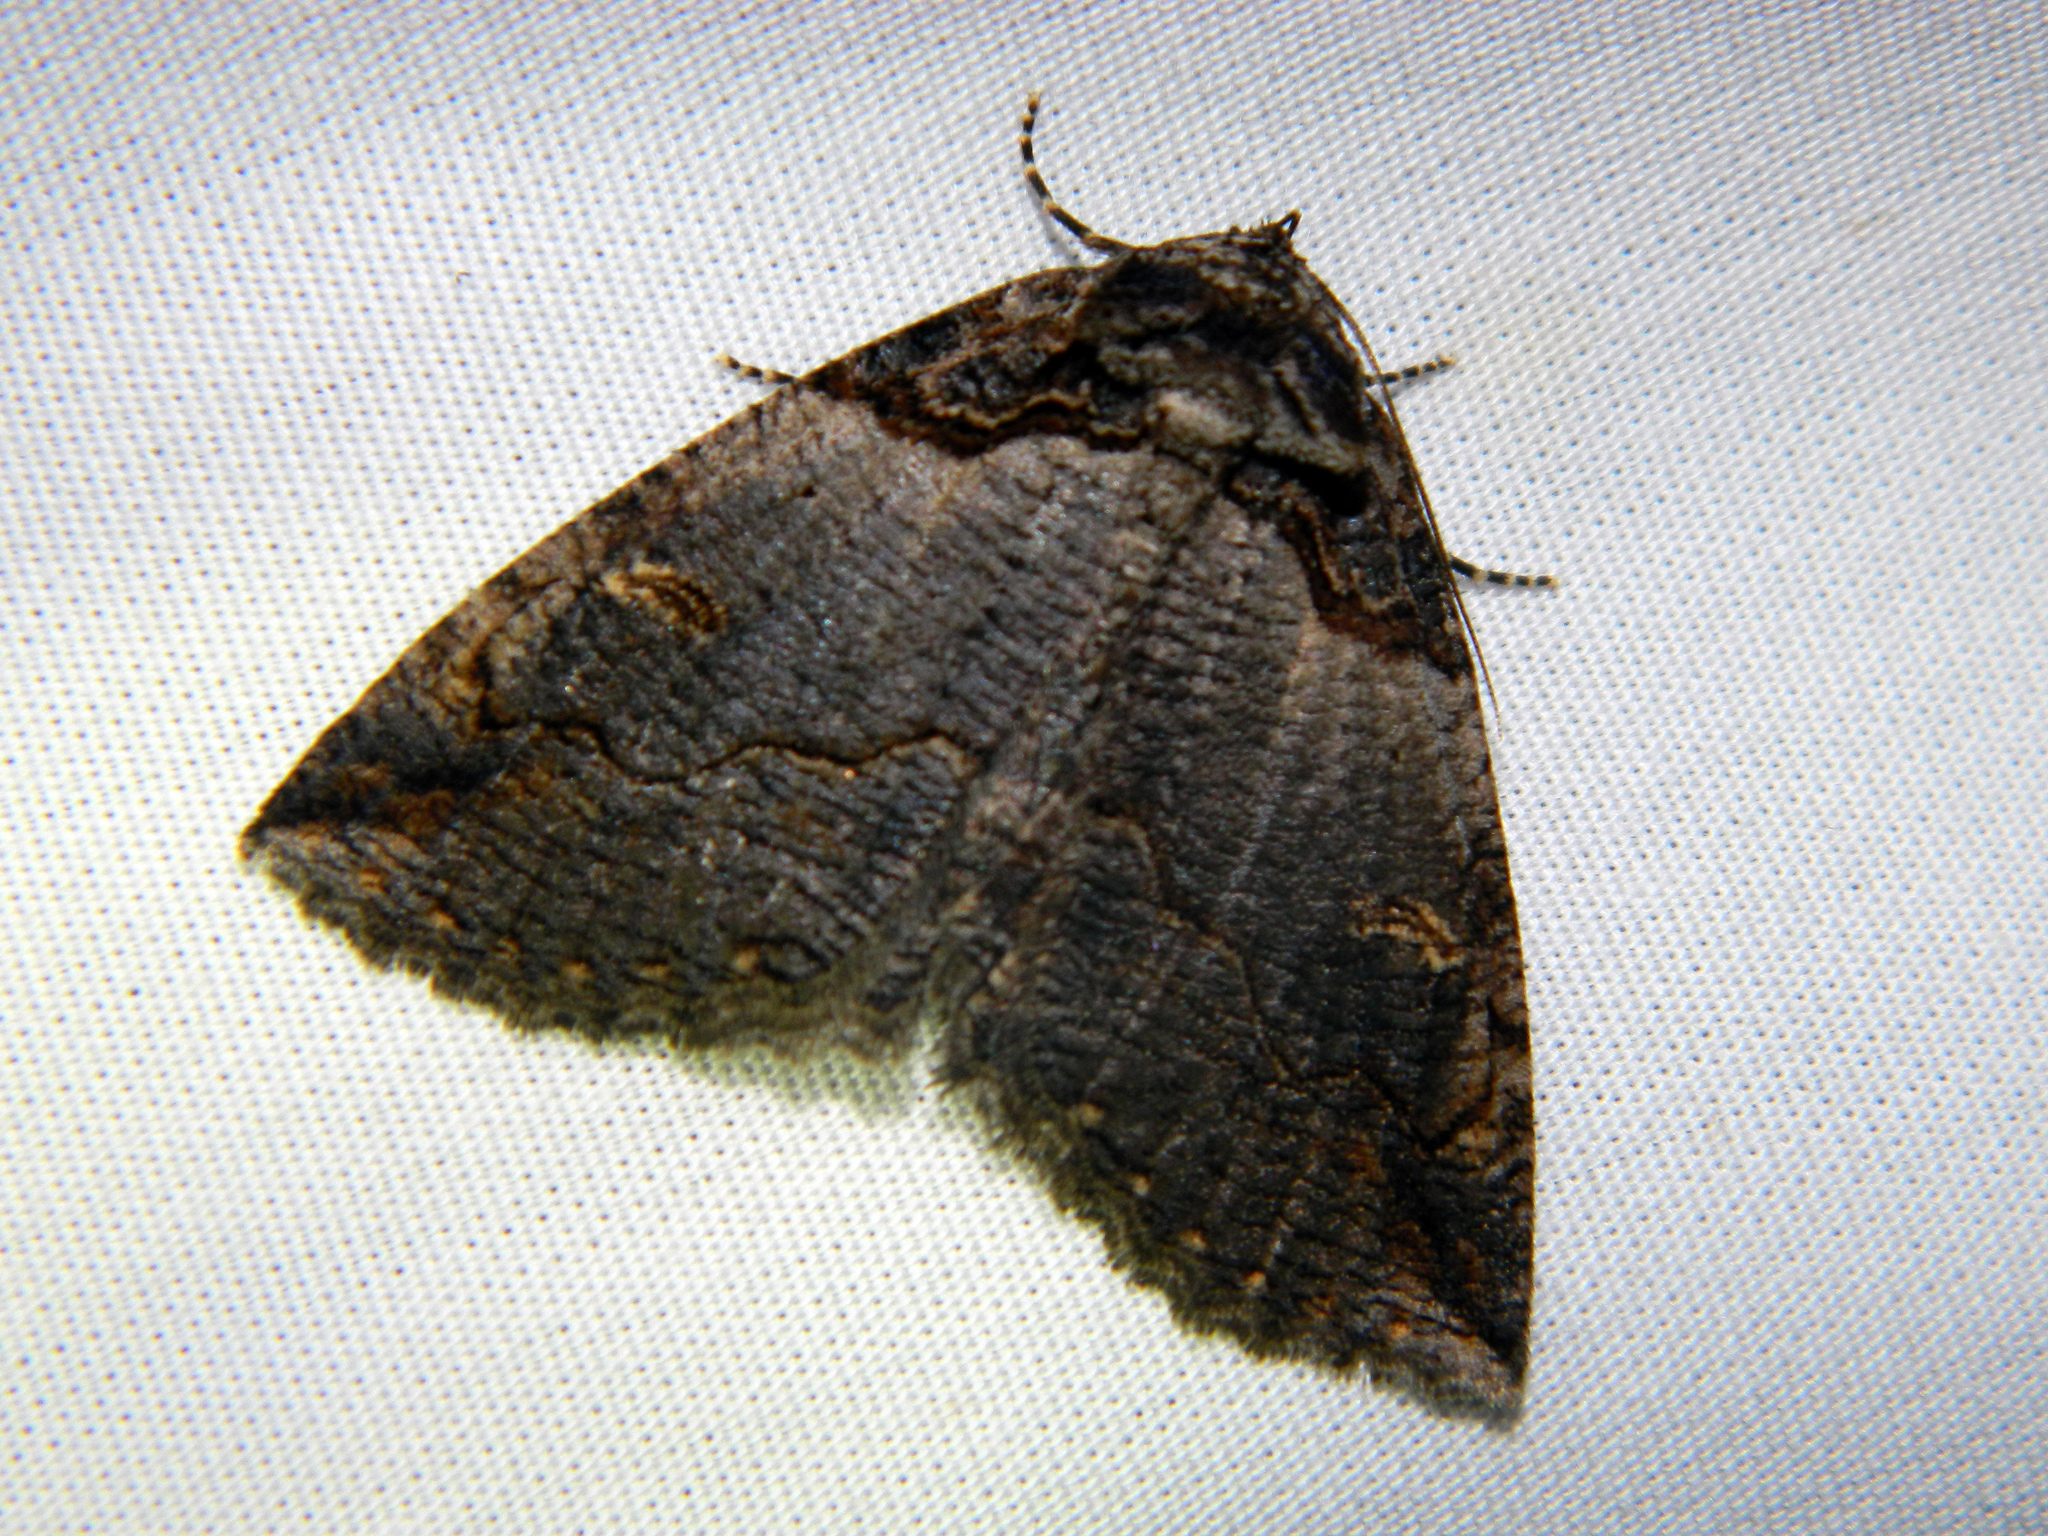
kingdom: Animalia
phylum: Arthropoda
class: Insecta
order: Lepidoptera
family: Erebidae
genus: Zale
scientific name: Zale intenta
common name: Intent zale moth
